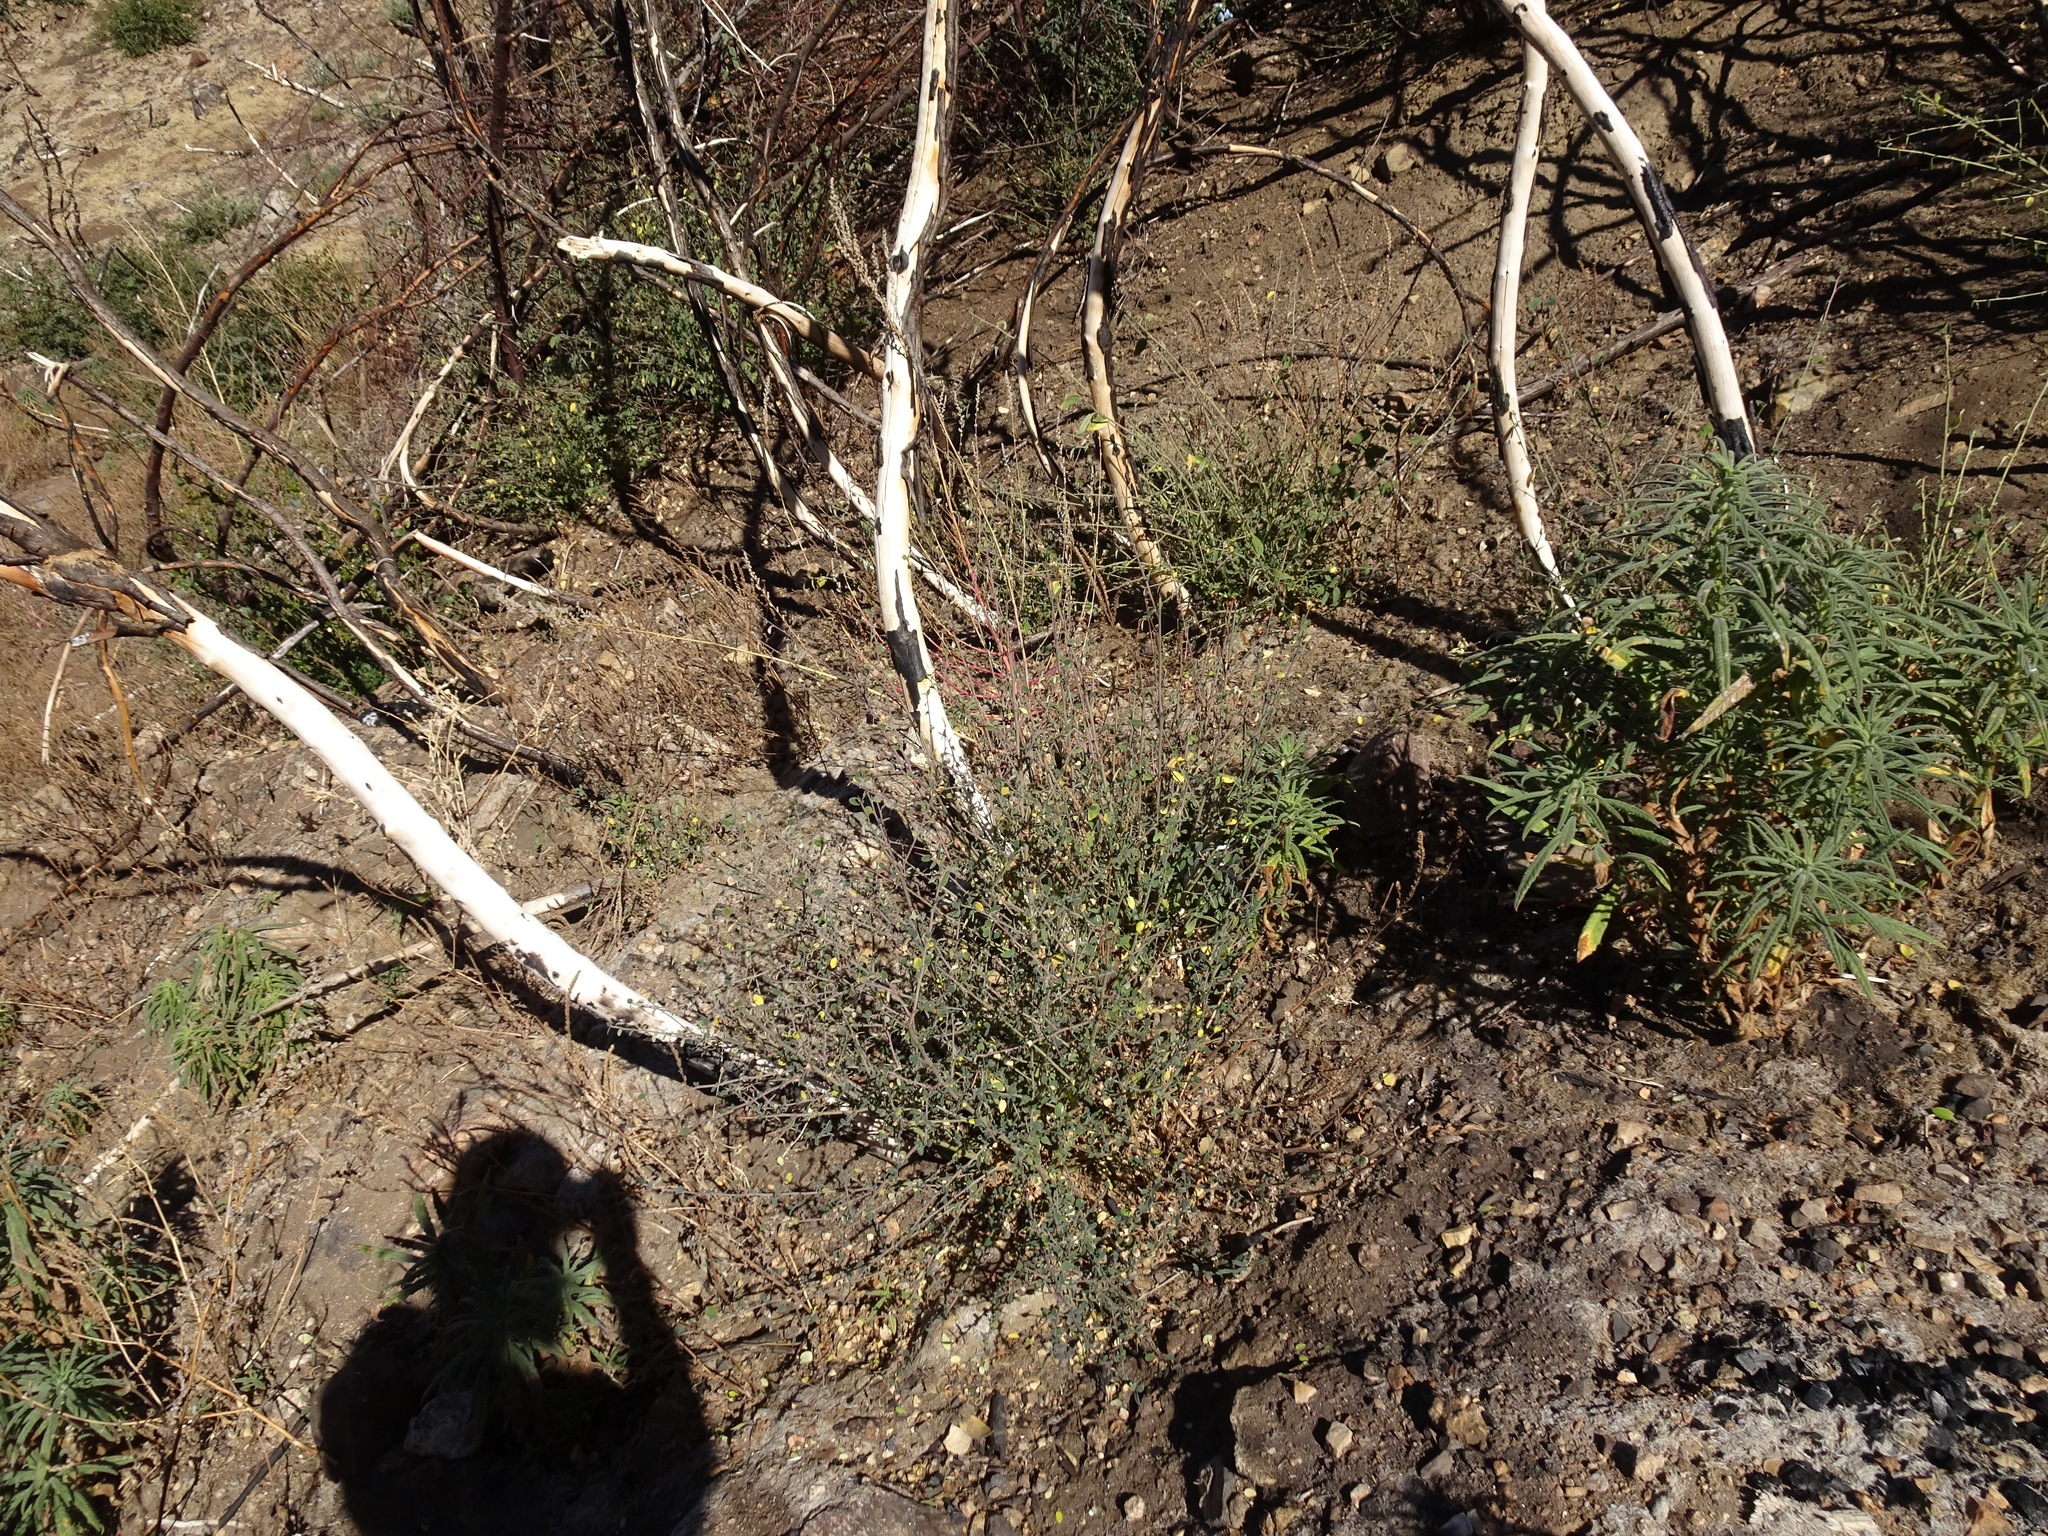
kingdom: Plantae
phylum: Tracheophyta
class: Magnoliopsida
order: Rosales
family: Rosaceae
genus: Cercocarpus
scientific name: Cercocarpus betuloides
